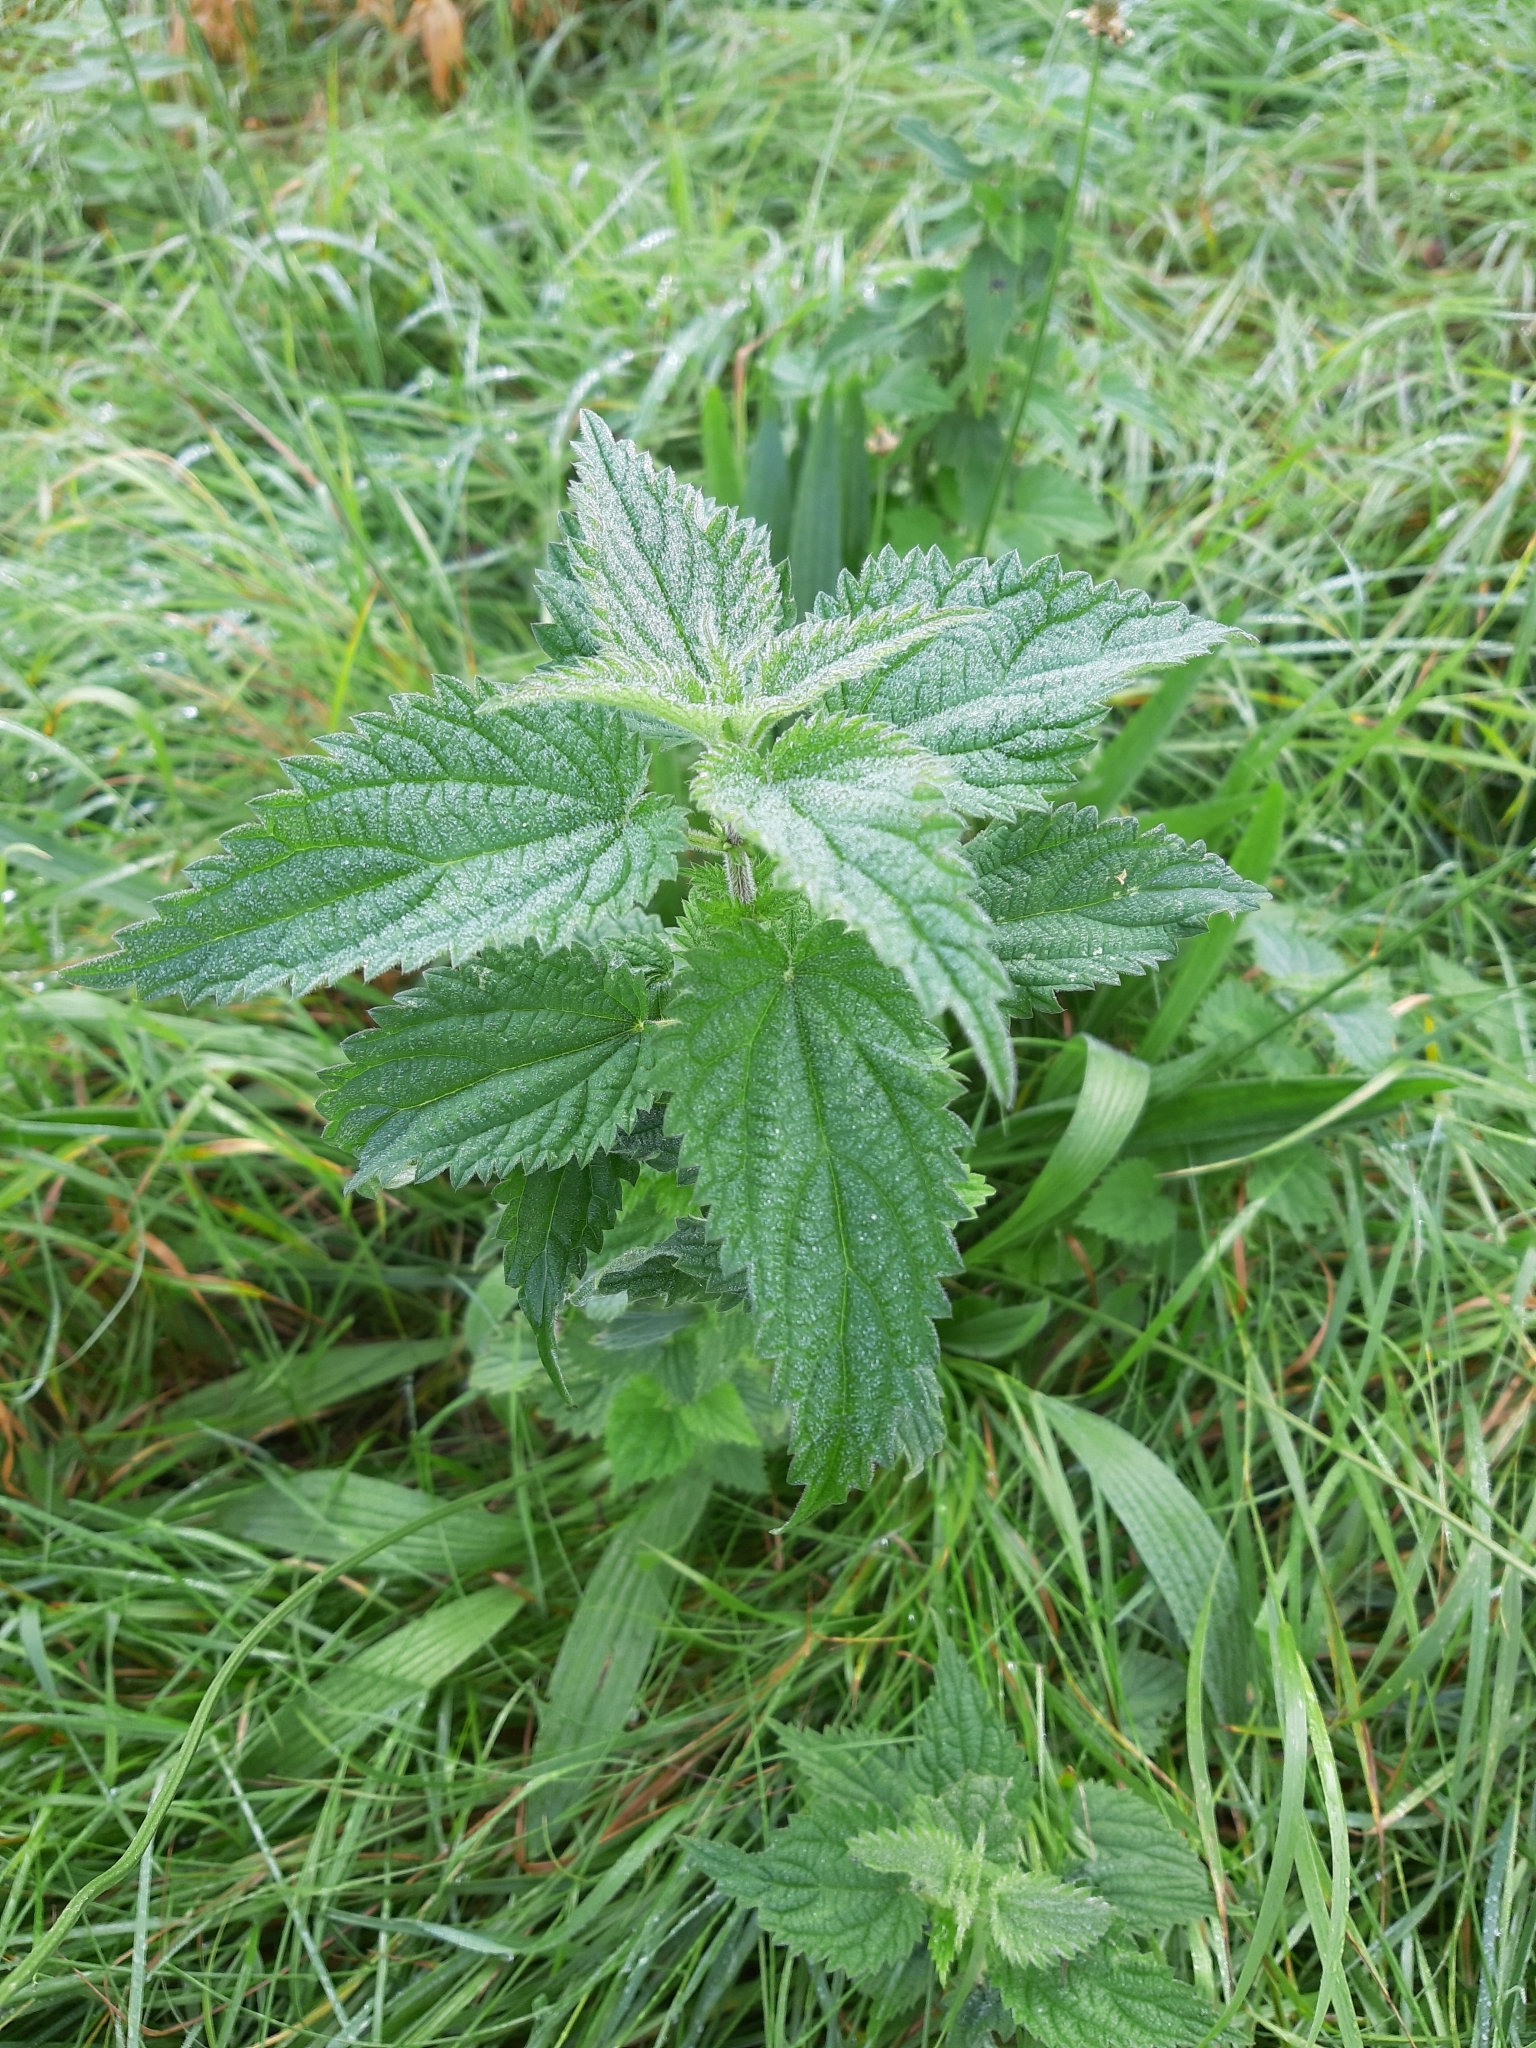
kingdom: Plantae
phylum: Tracheophyta
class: Magnoliopsida
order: Rosales
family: Urticaceae
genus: Urtica
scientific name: Urtica dioica
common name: Common nettle
